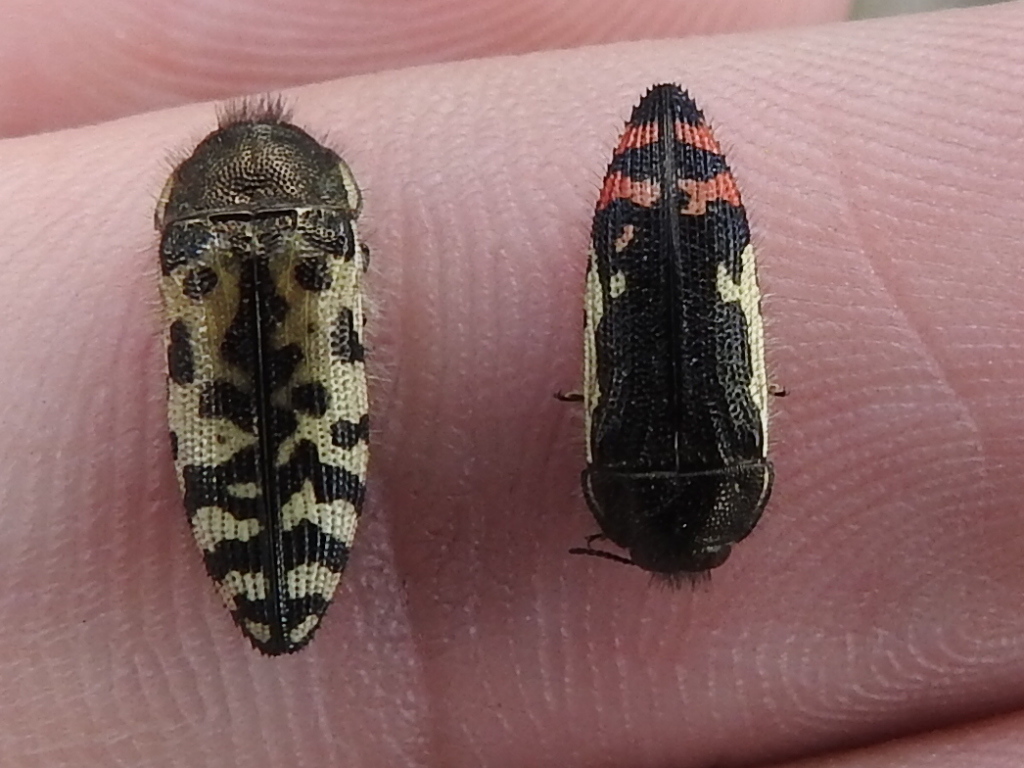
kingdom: Animalia
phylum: Arthropoda
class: Insecta
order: Coleoptera
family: Buprestidae
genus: Acmaeodera
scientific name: Acmaeodera chiricahuae
